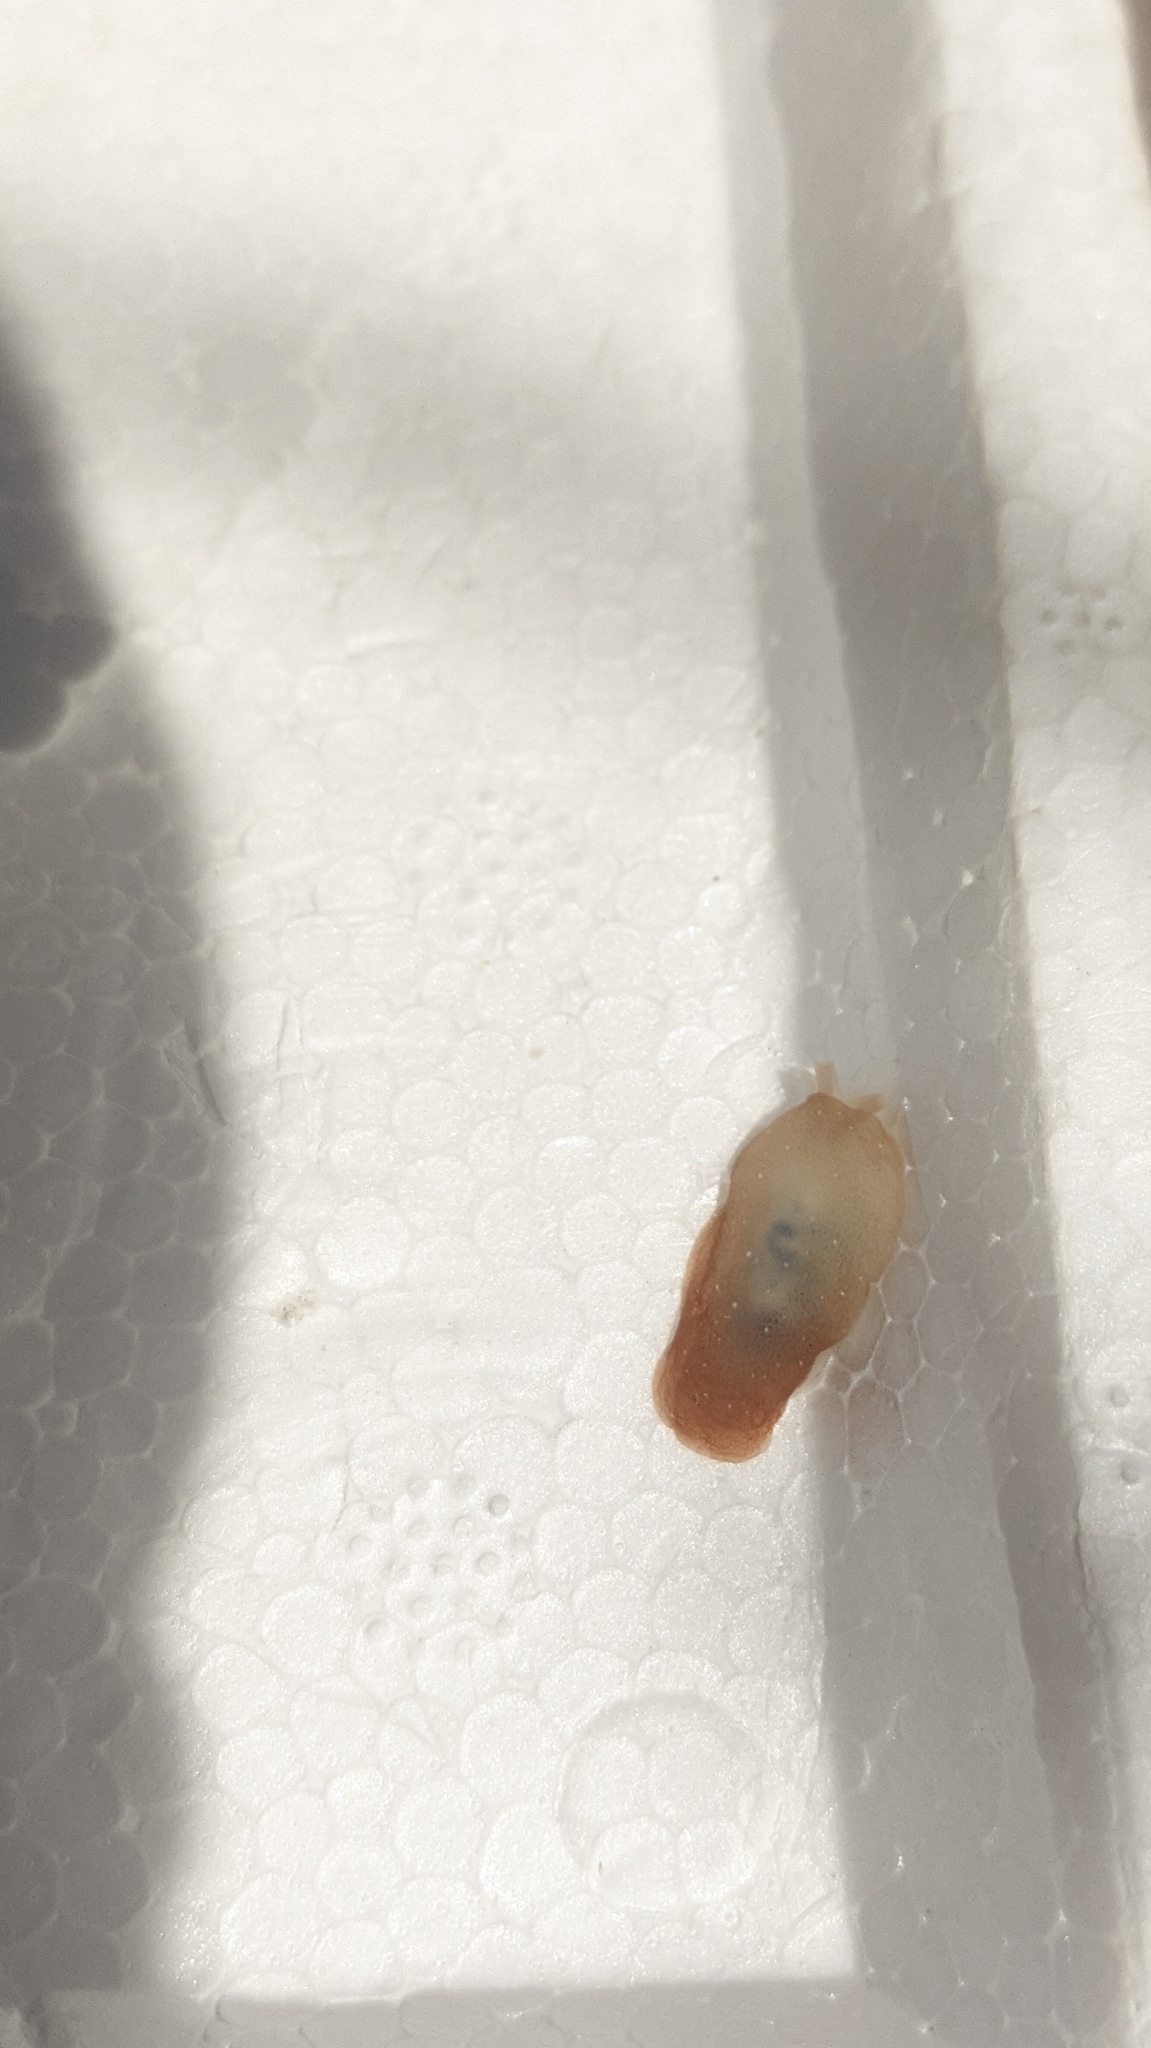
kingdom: Animalia
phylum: Mollusca
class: Gastropoda
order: Pleurobranchida
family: Pleurobranchidae
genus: Berthella
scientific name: Berthella agassizii
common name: Agassiz's berthella
